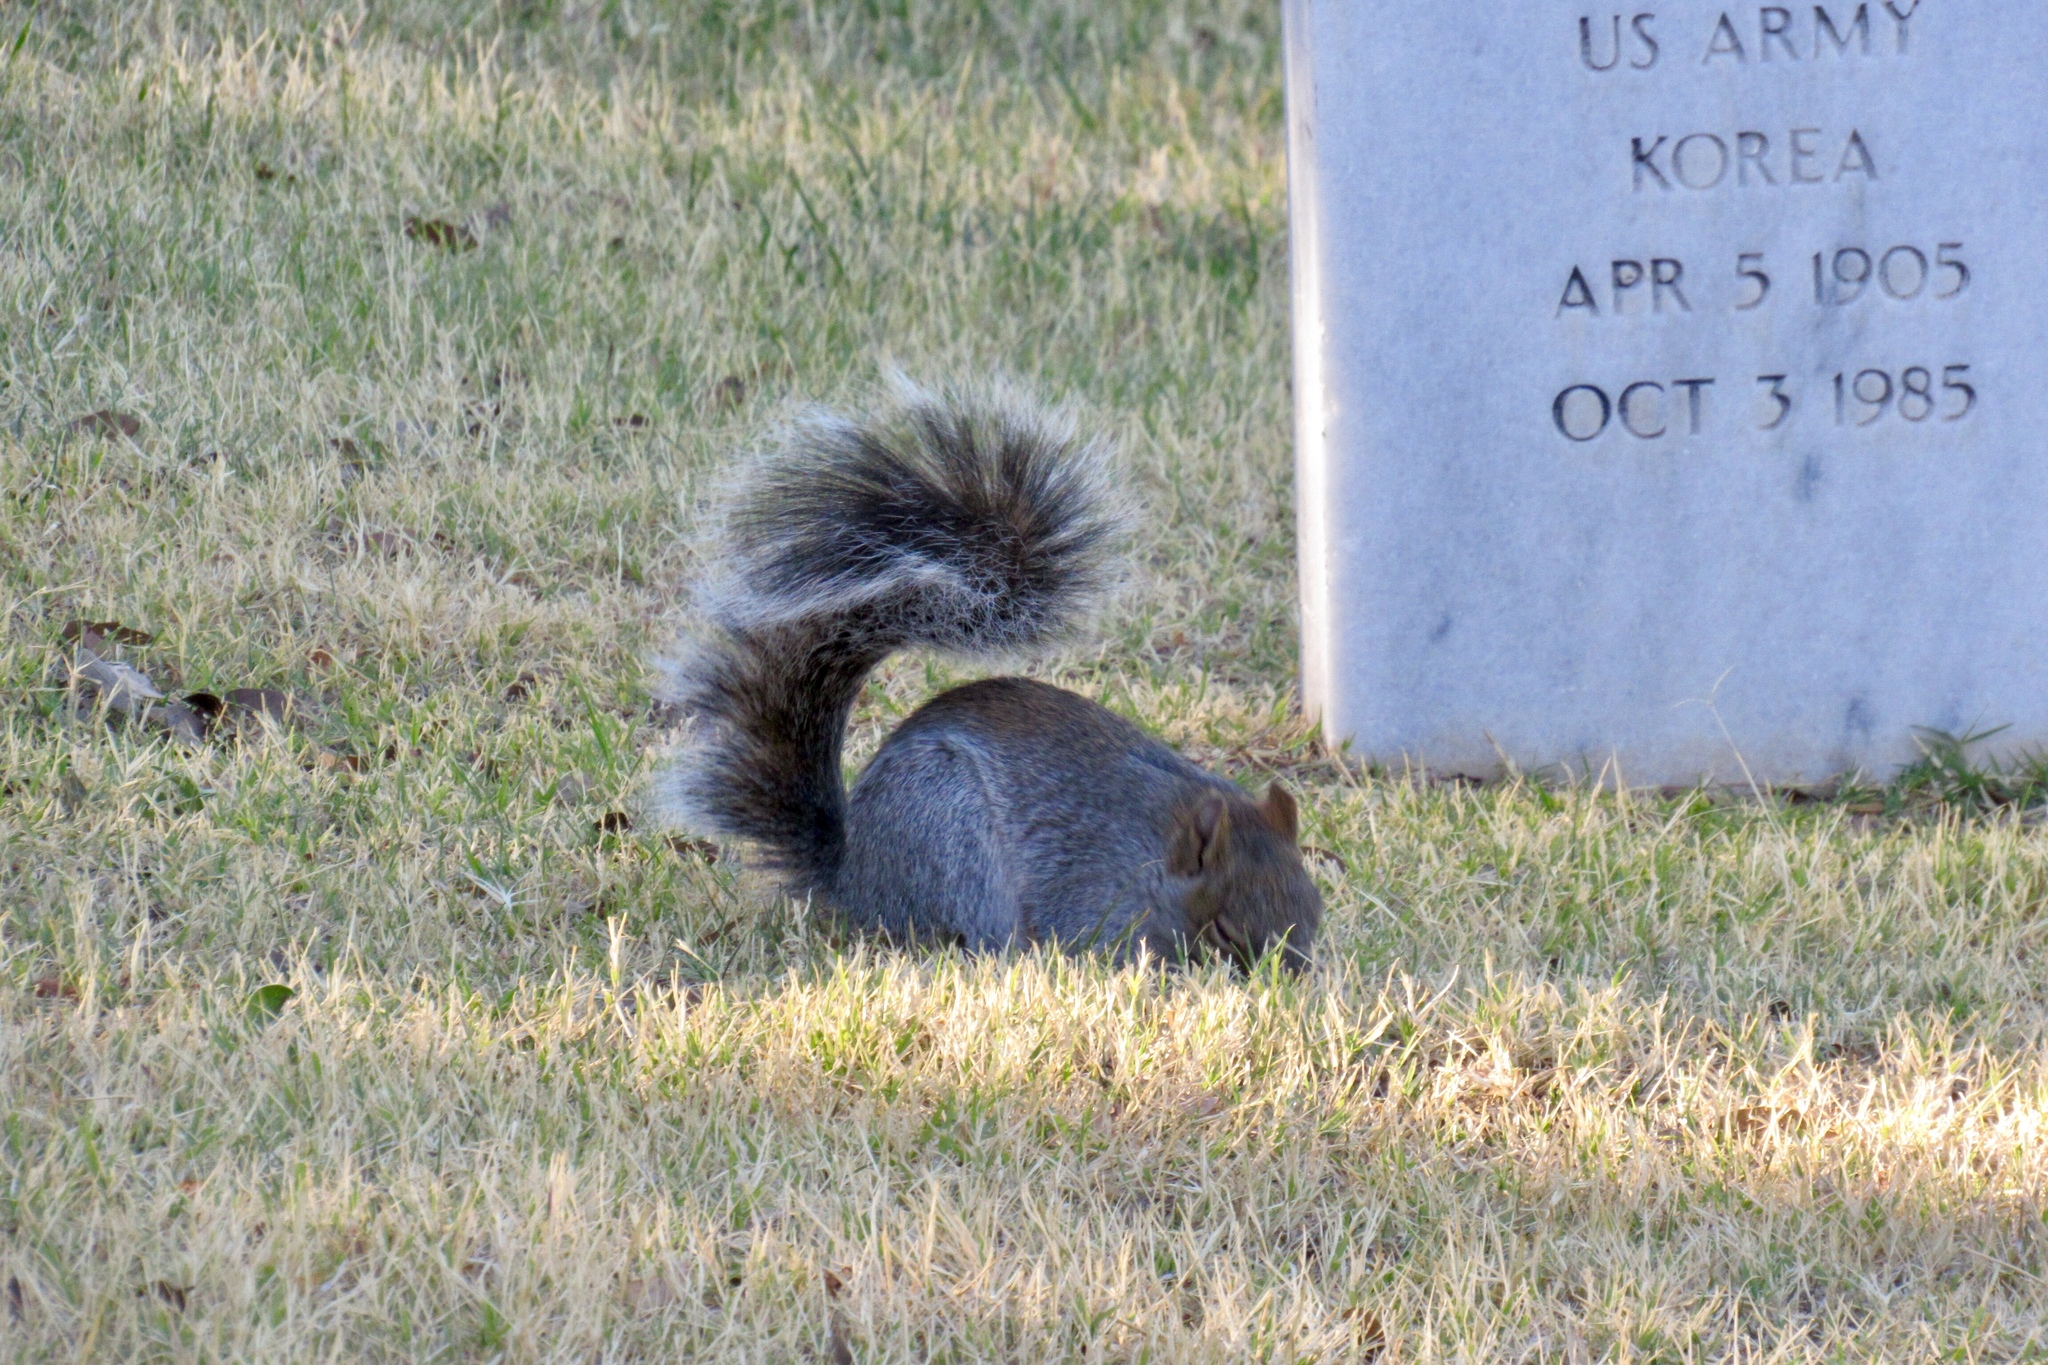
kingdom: Animalia
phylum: Chordata
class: Mammalia
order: Rodentia
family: Sciuridae
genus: Sciurus
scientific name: Sciurus arizonensis
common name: Arizona gray squirrel
